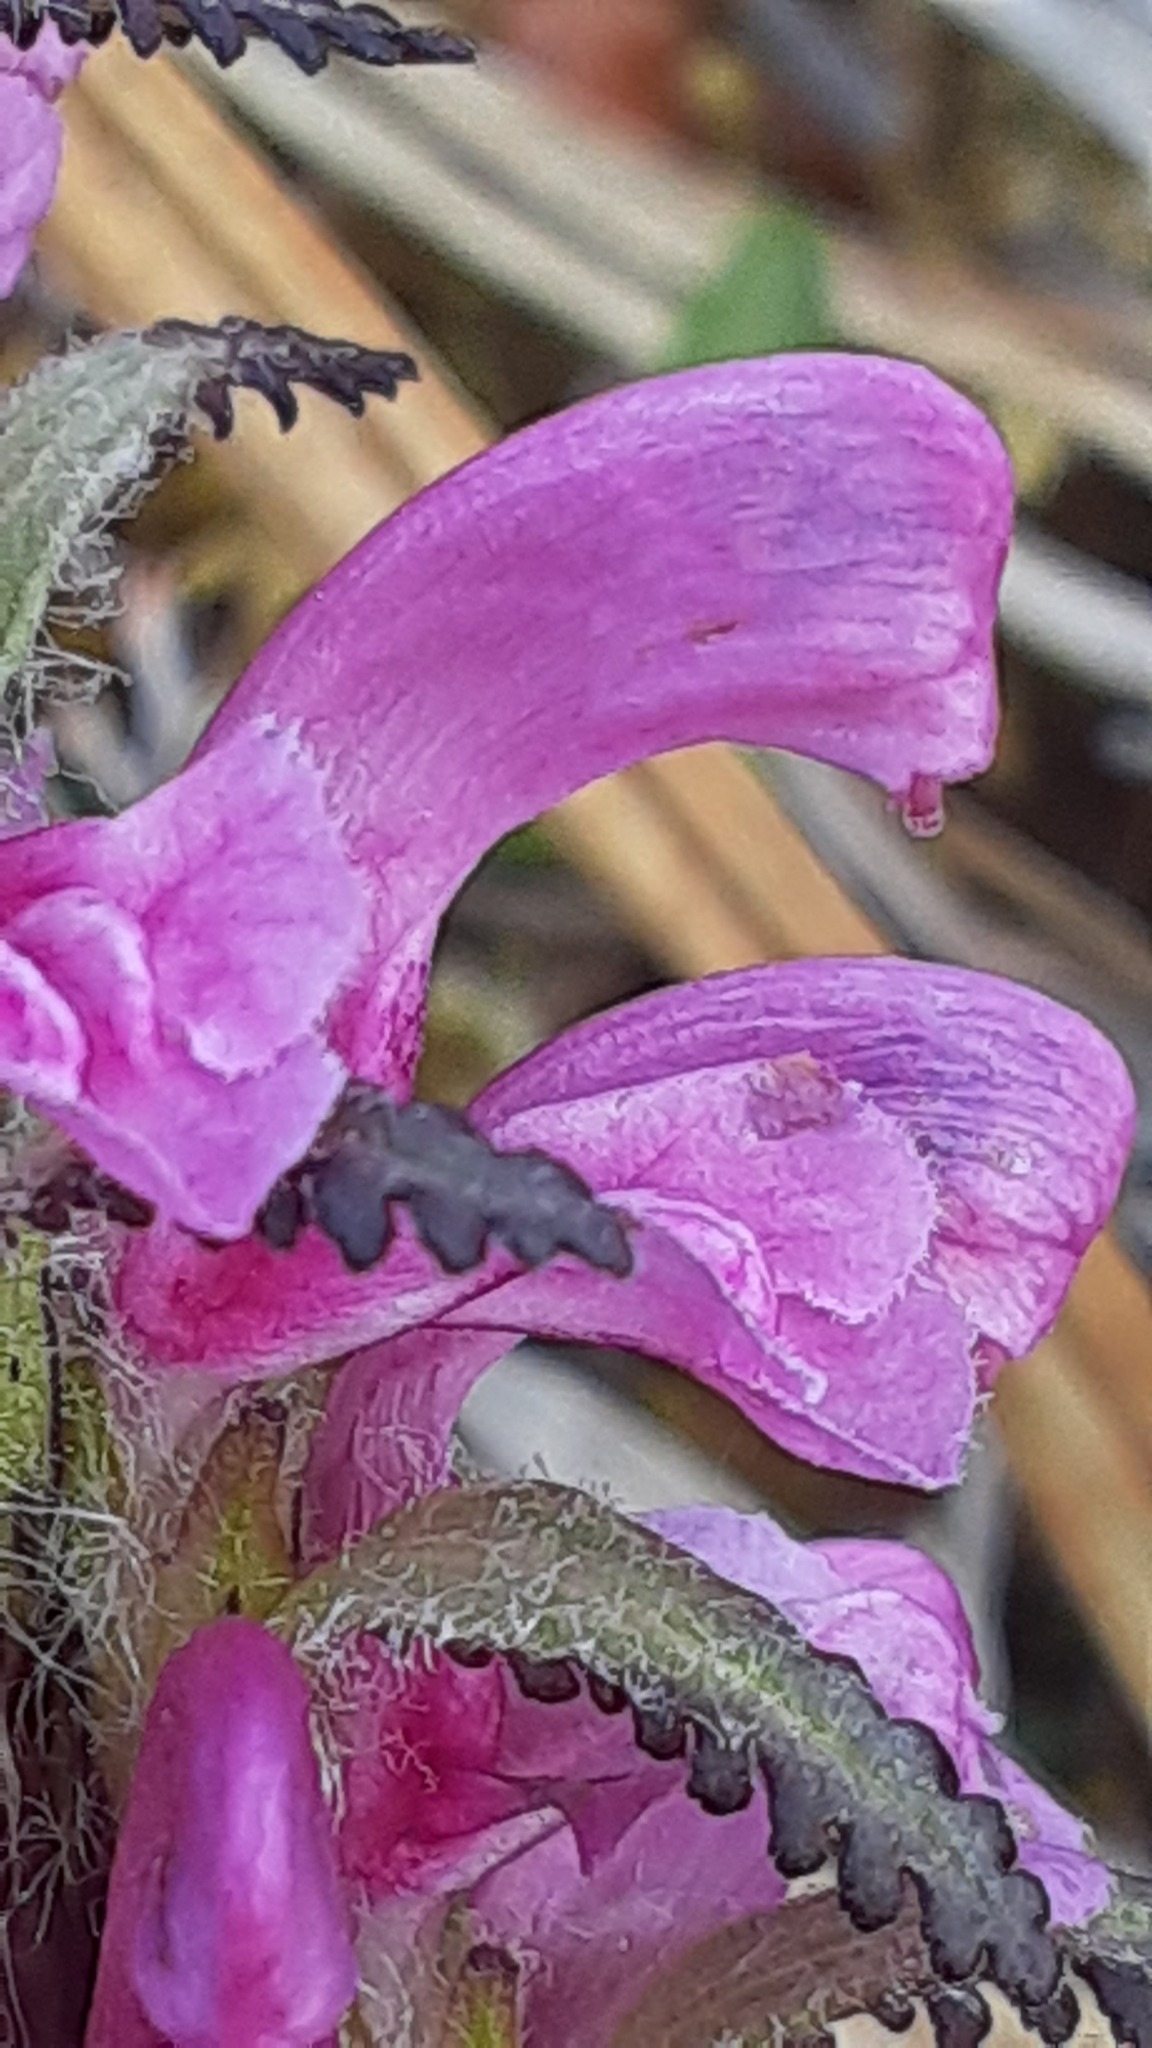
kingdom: Plantae
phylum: Tracheophyta
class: Magnoliopsida
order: Lamiales
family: Orobanchaceae
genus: Pedicularis
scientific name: Pedicularis langsdorffii
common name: Langsdorff's lousewort
